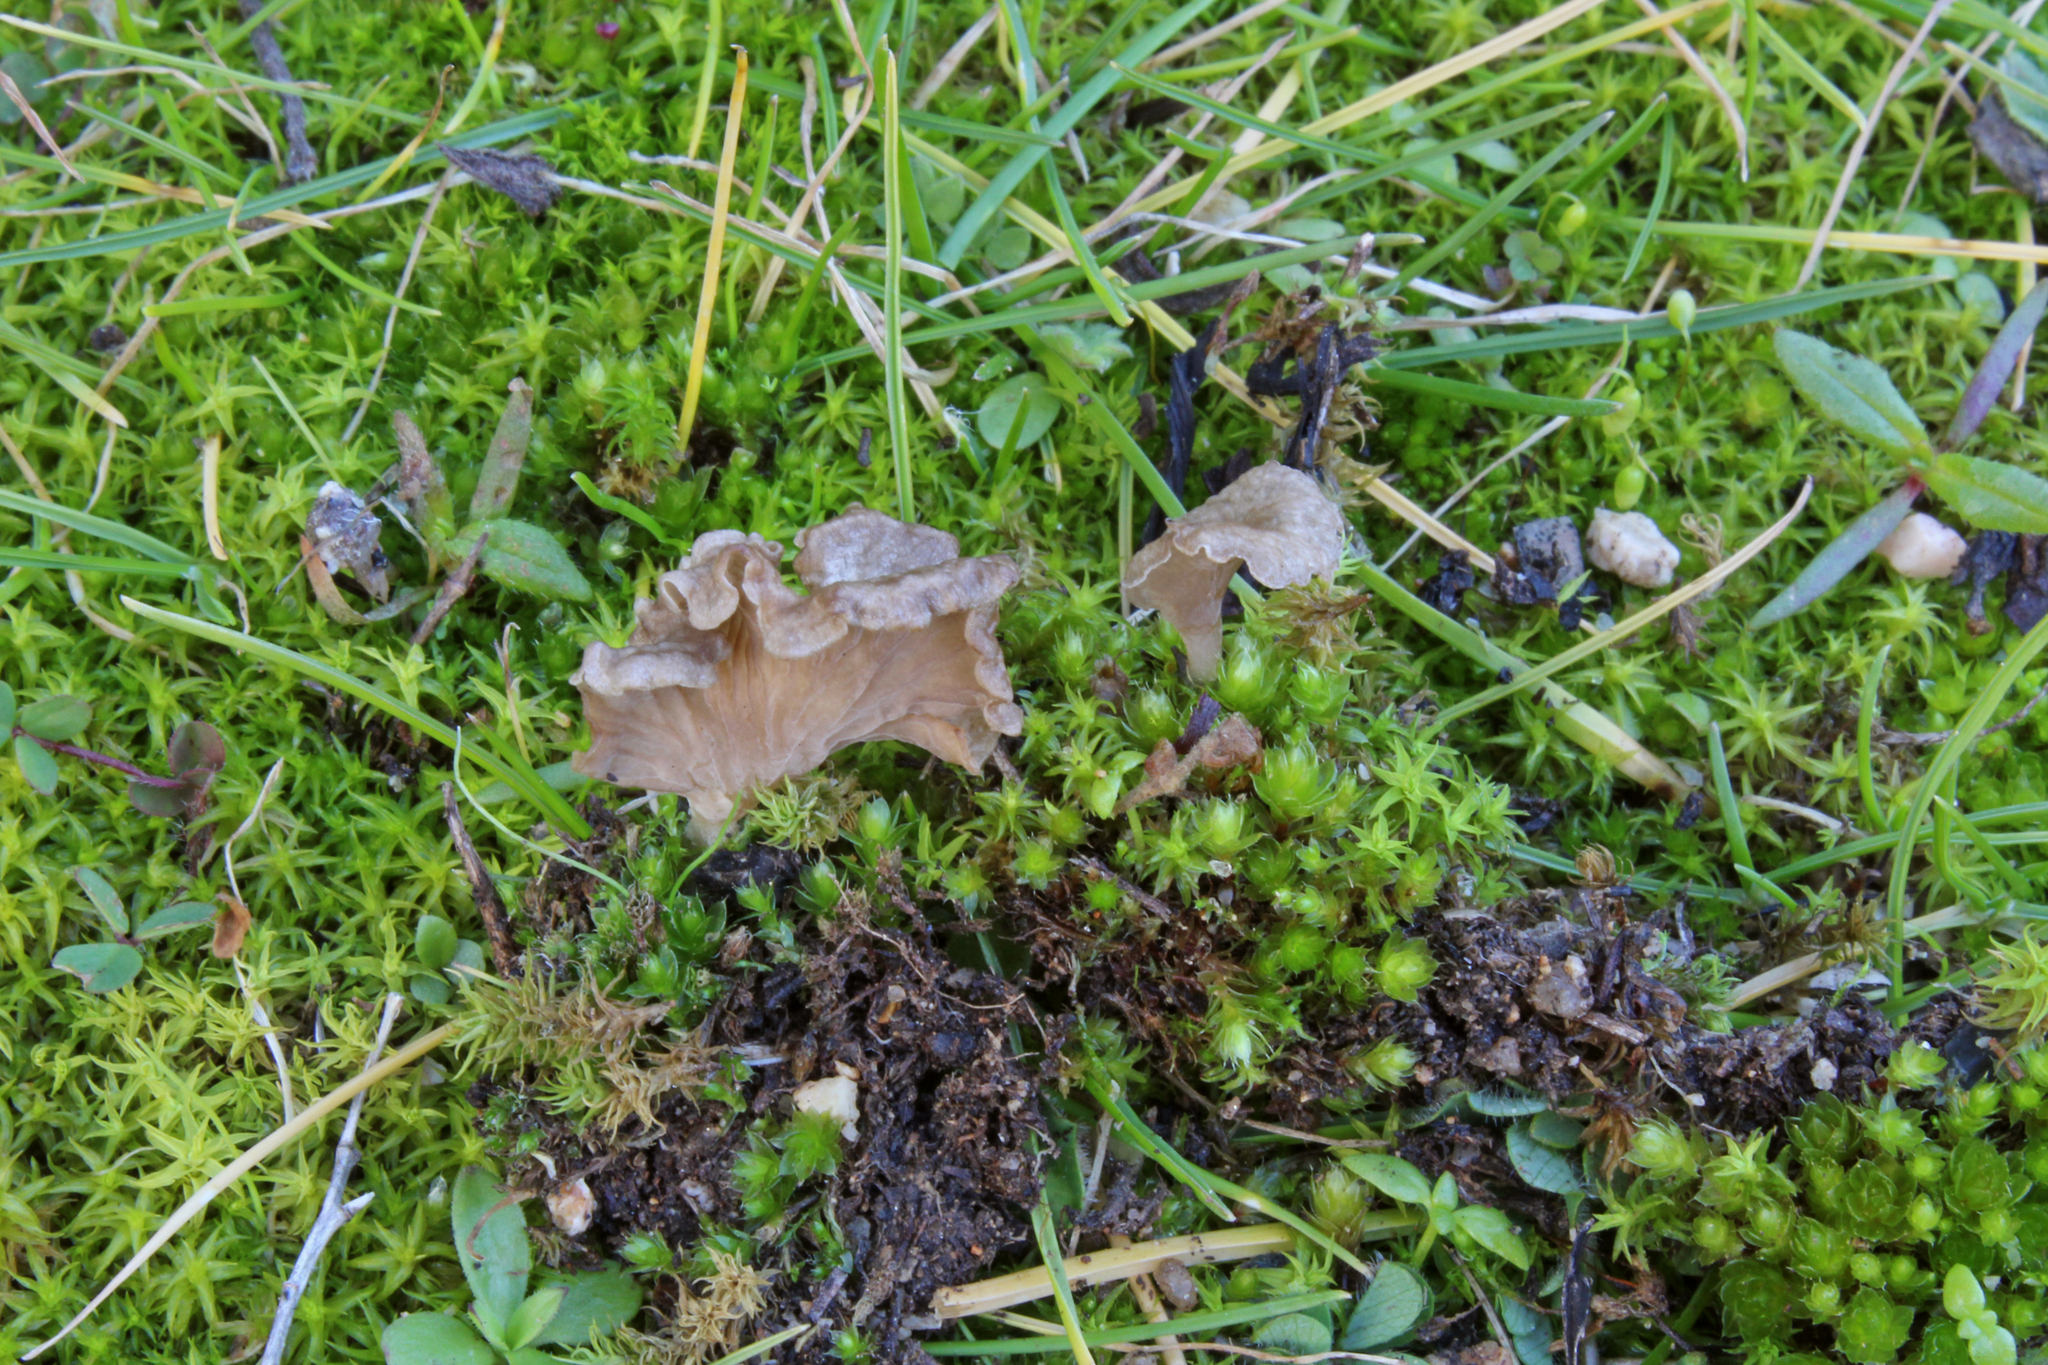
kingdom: Fungi
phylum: Basidiomycota
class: Agaricomycetes
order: Agaricales
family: Hygrophoraceae
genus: Arrhenia
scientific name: Arrhenia spathulata
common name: Spatulate oysterling
